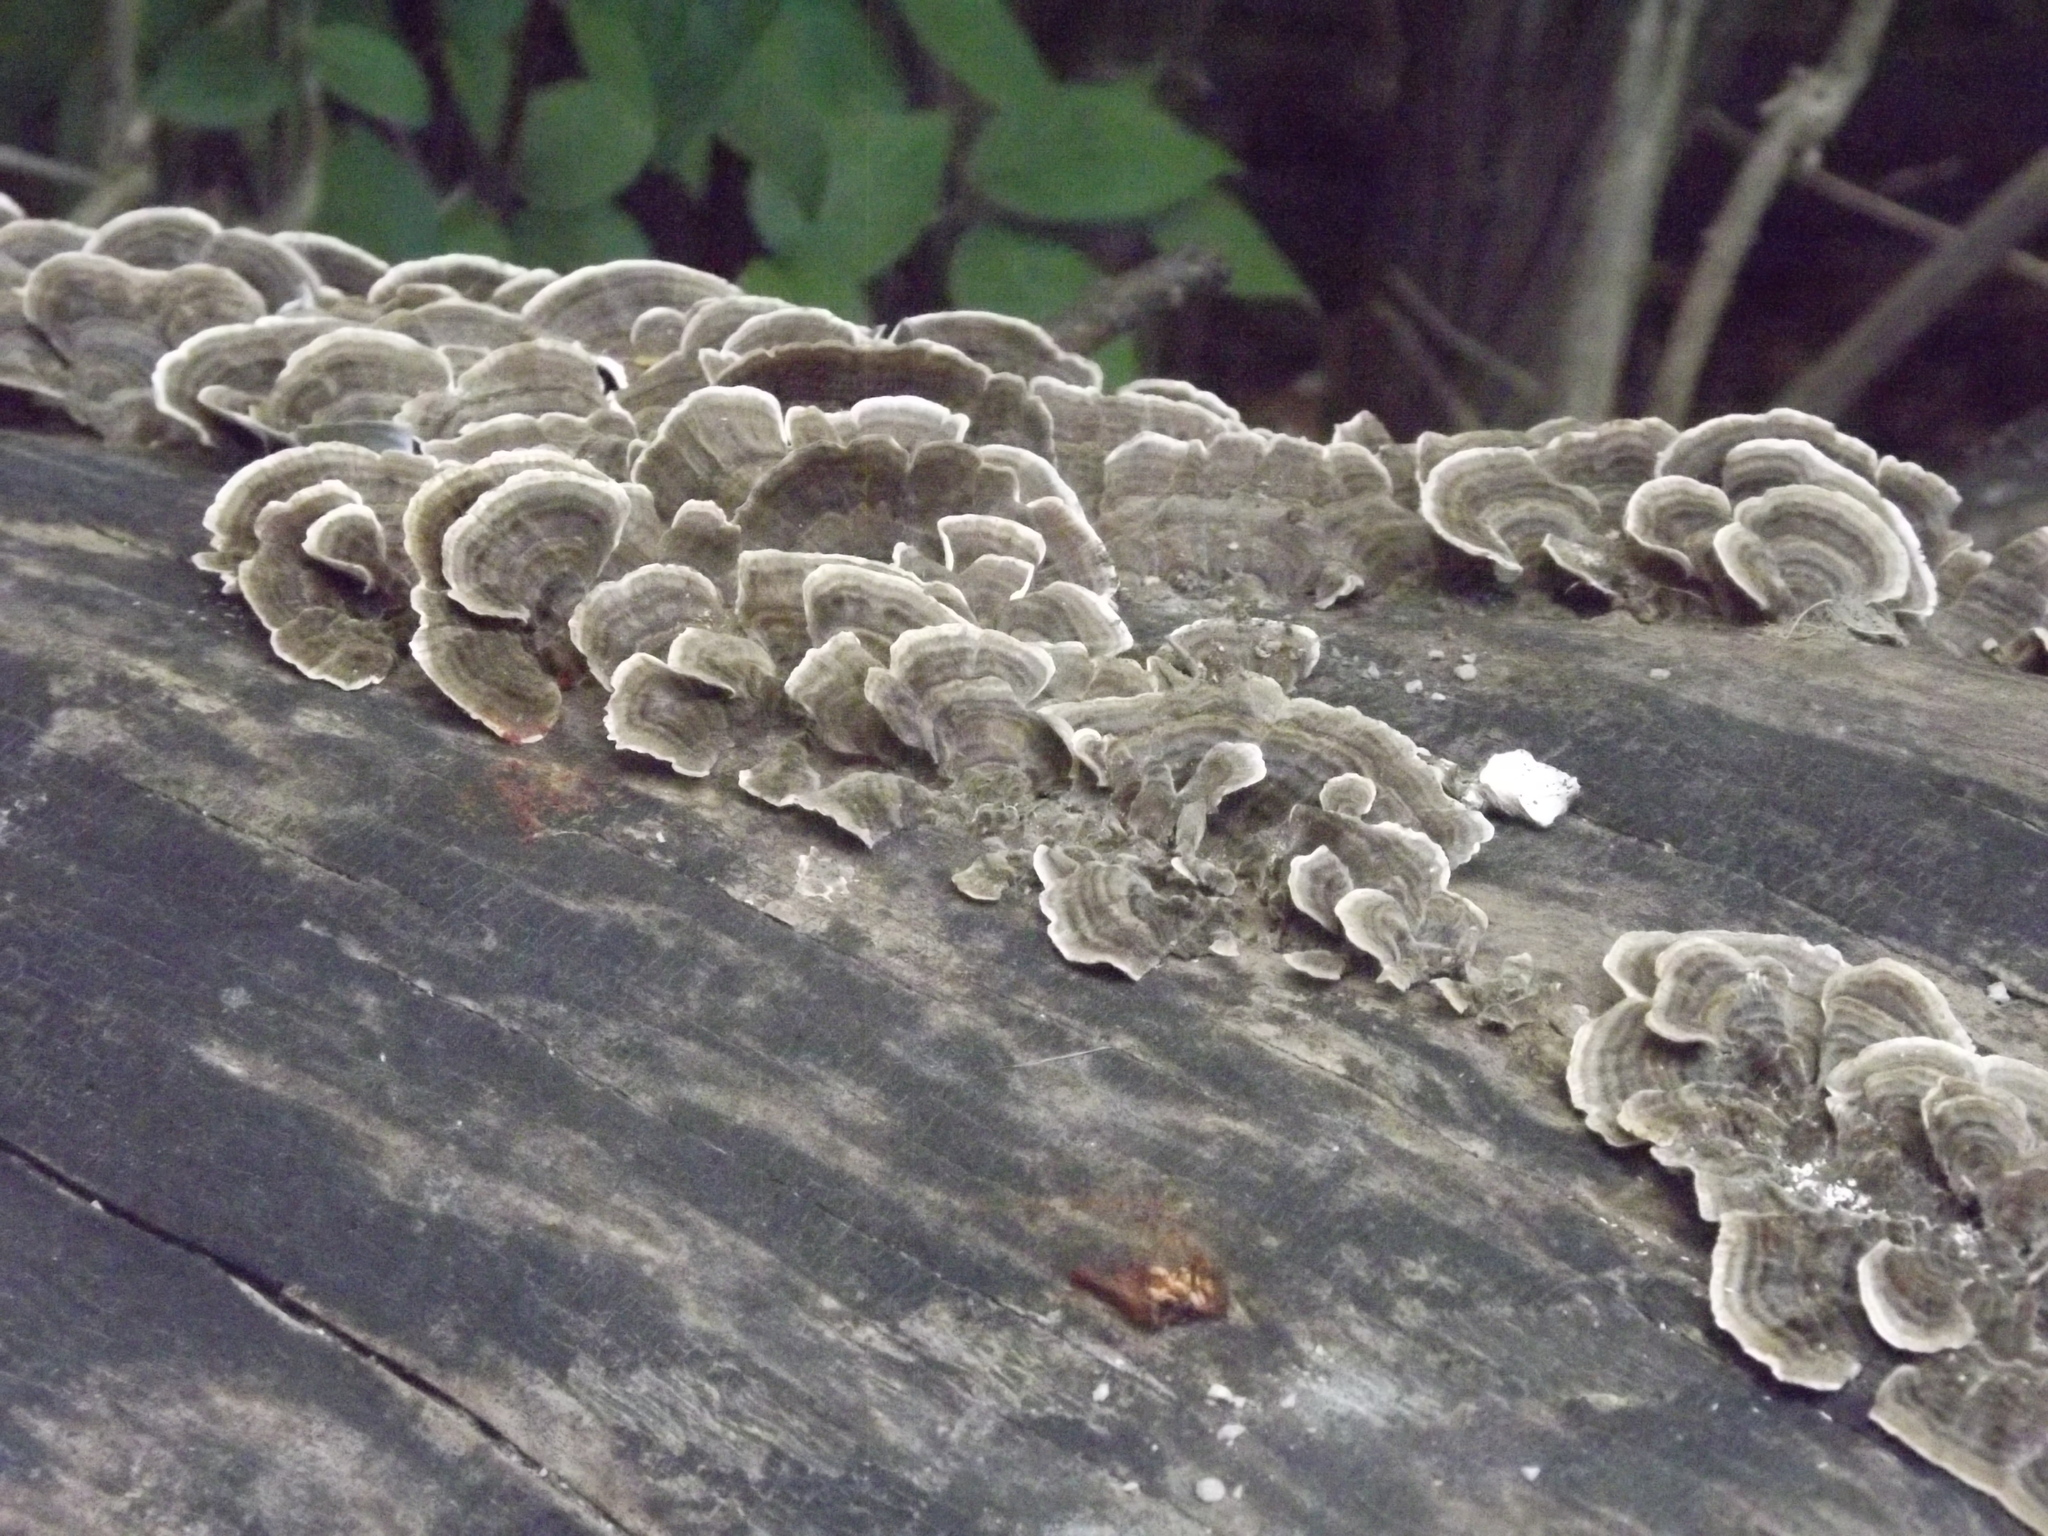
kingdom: Fungi
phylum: Basidiomycota
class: Agaricomycetes
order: Polyporales
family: Polyporaceae
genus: Trametes
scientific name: Trametes versicolor
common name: Turkeytail
